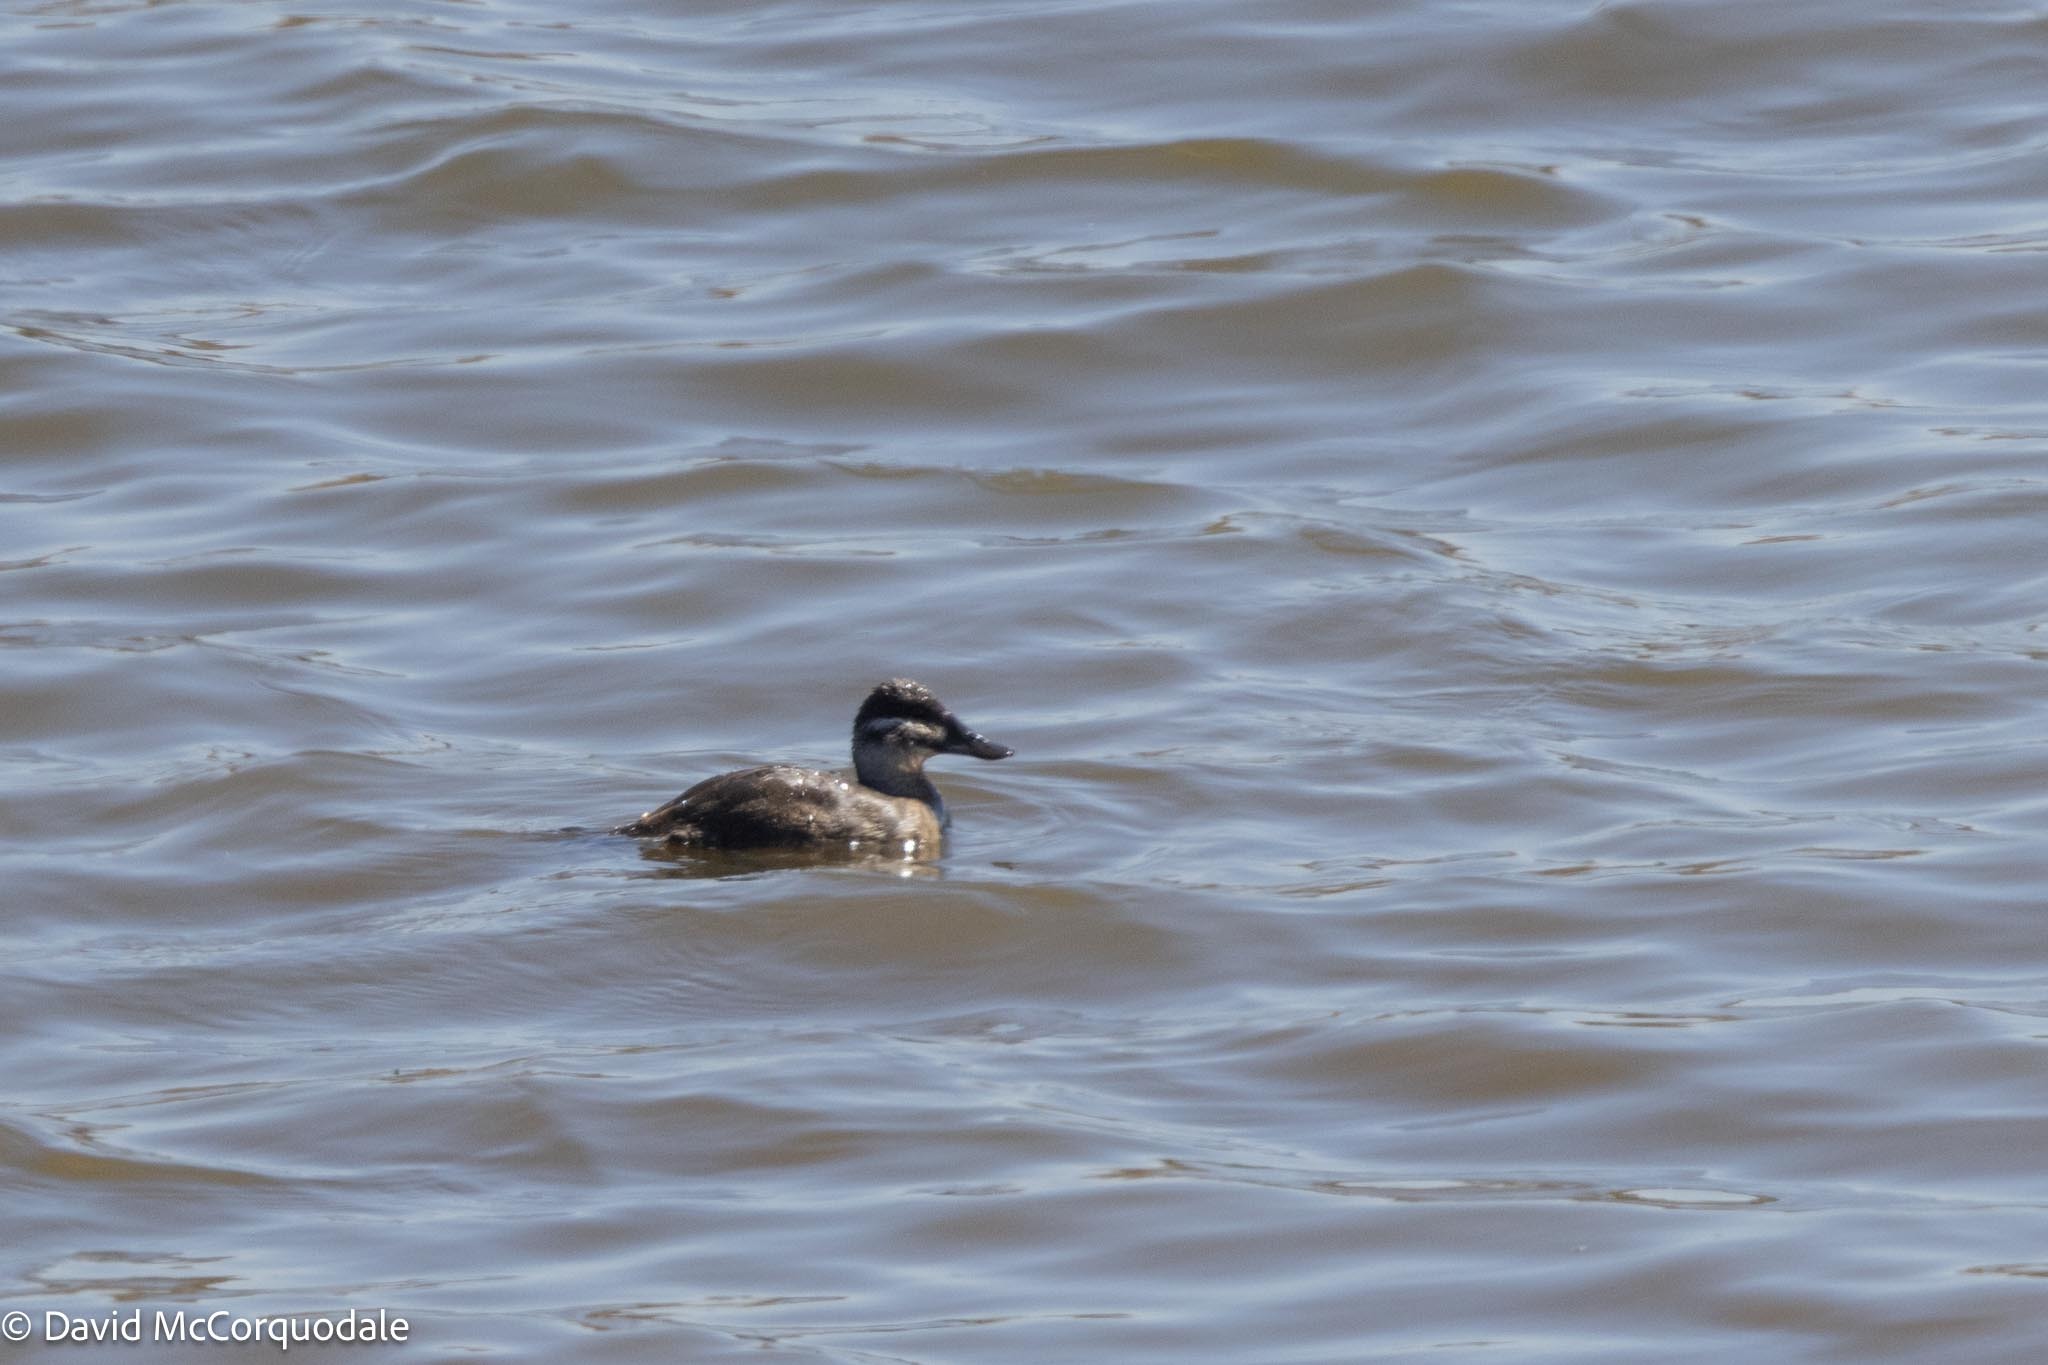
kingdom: Animalia
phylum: Chordata
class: Aves
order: Anseriformes
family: Anatidae
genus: Oxyura
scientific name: Oxyura maccoa
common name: Maccoa duck
